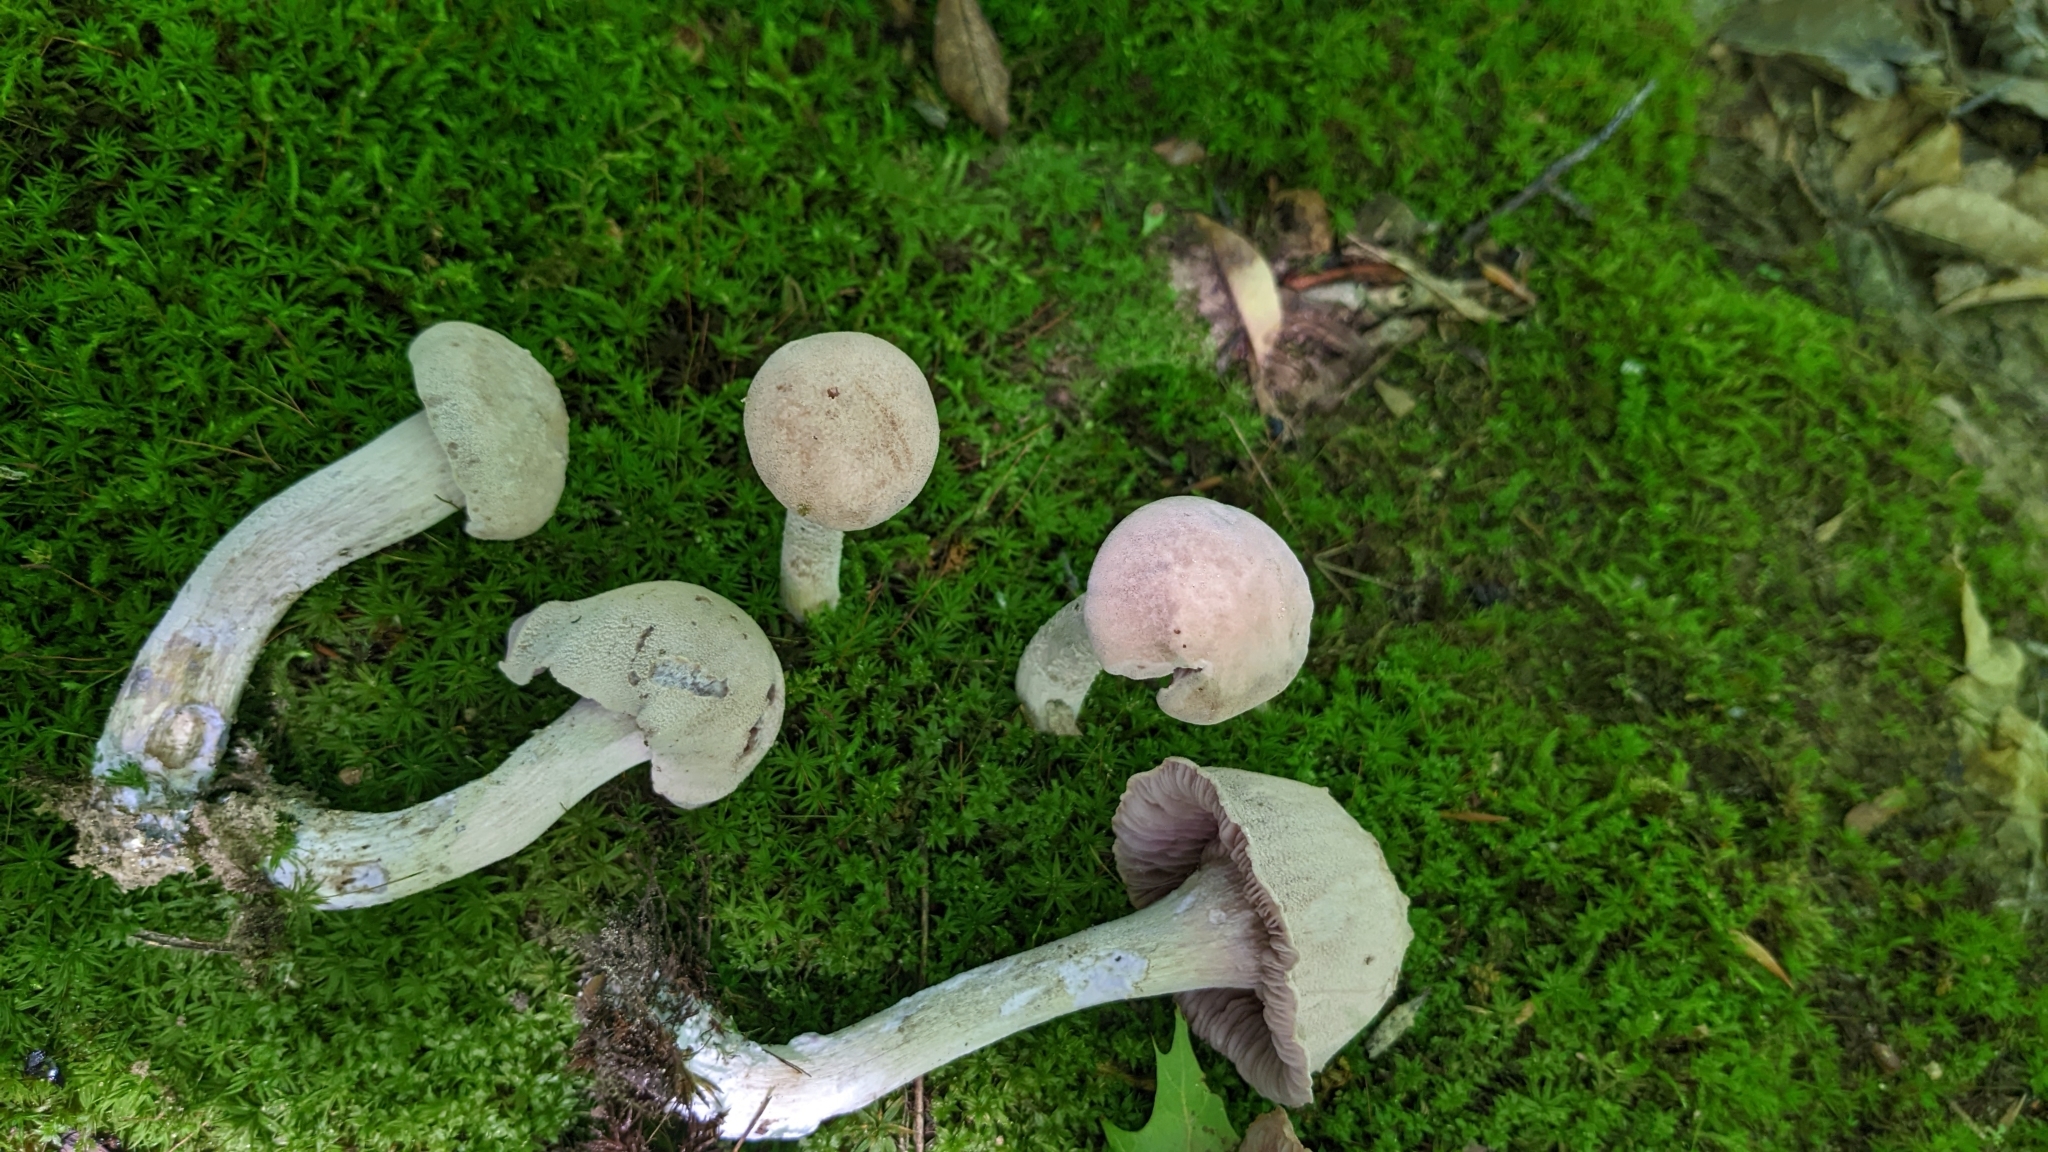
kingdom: Fungi
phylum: Basidiomycota
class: Agaricomycetes
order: Agaricales
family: Hydnangiaceae
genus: Laccaria
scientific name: Laccaria ochropurpurea
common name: Purple laccaria
